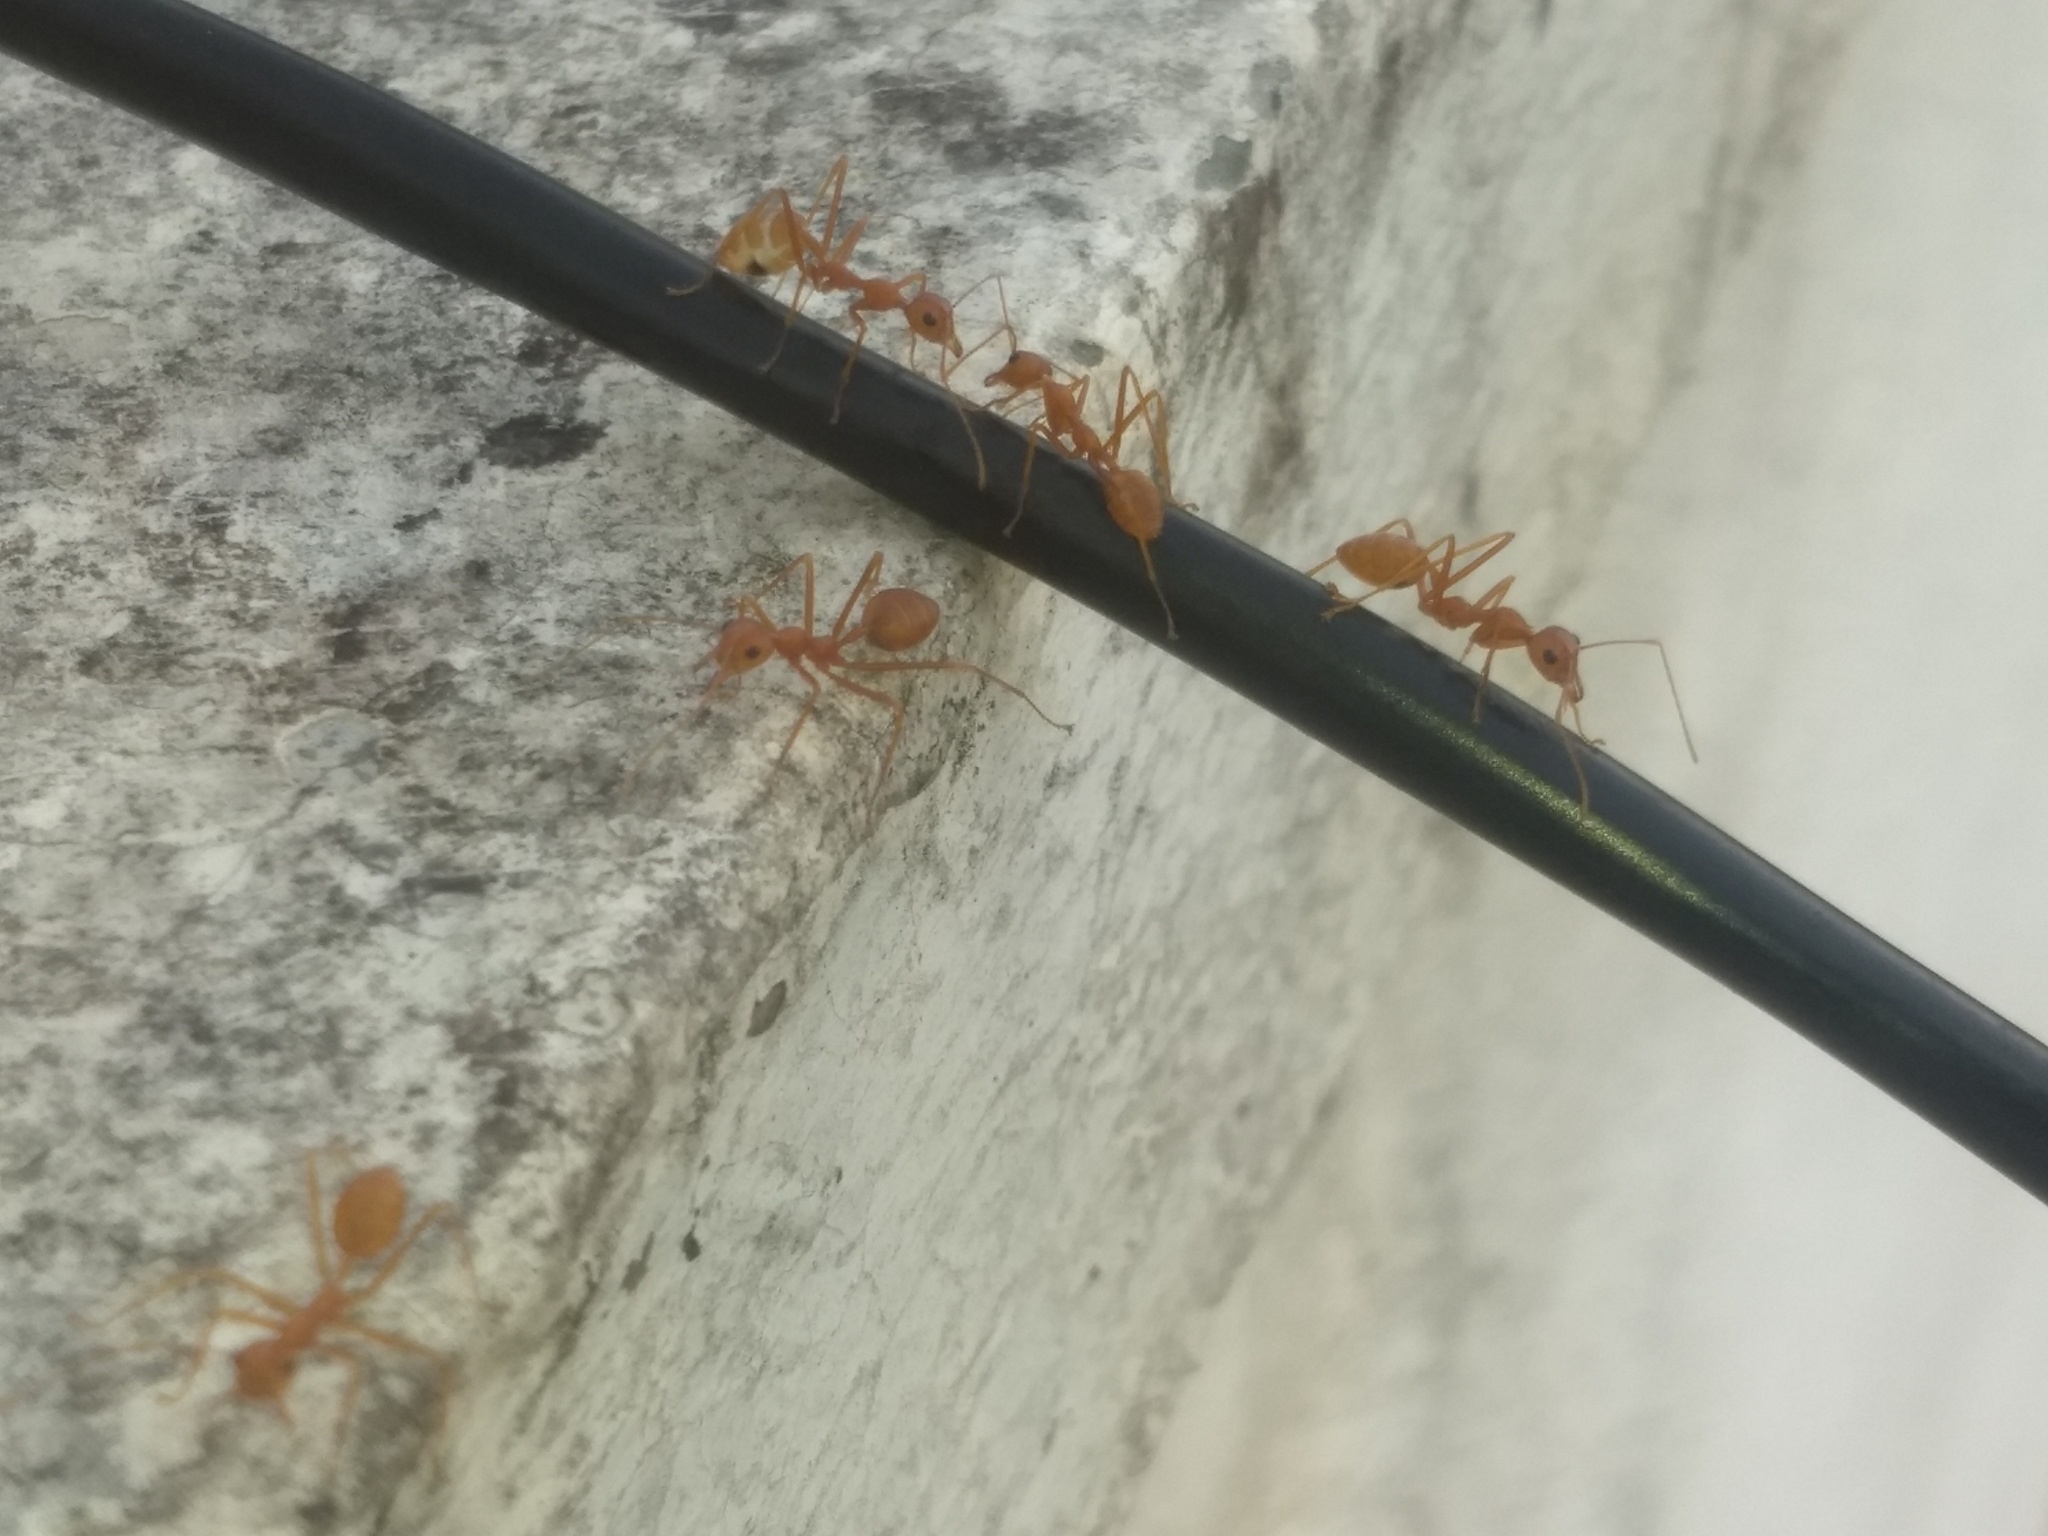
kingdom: Animalia
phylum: Arthropoda
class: Insecta
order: Hymenoptera
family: Formicidae
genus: Oecophylla
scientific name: Oecophylla smaragdina
